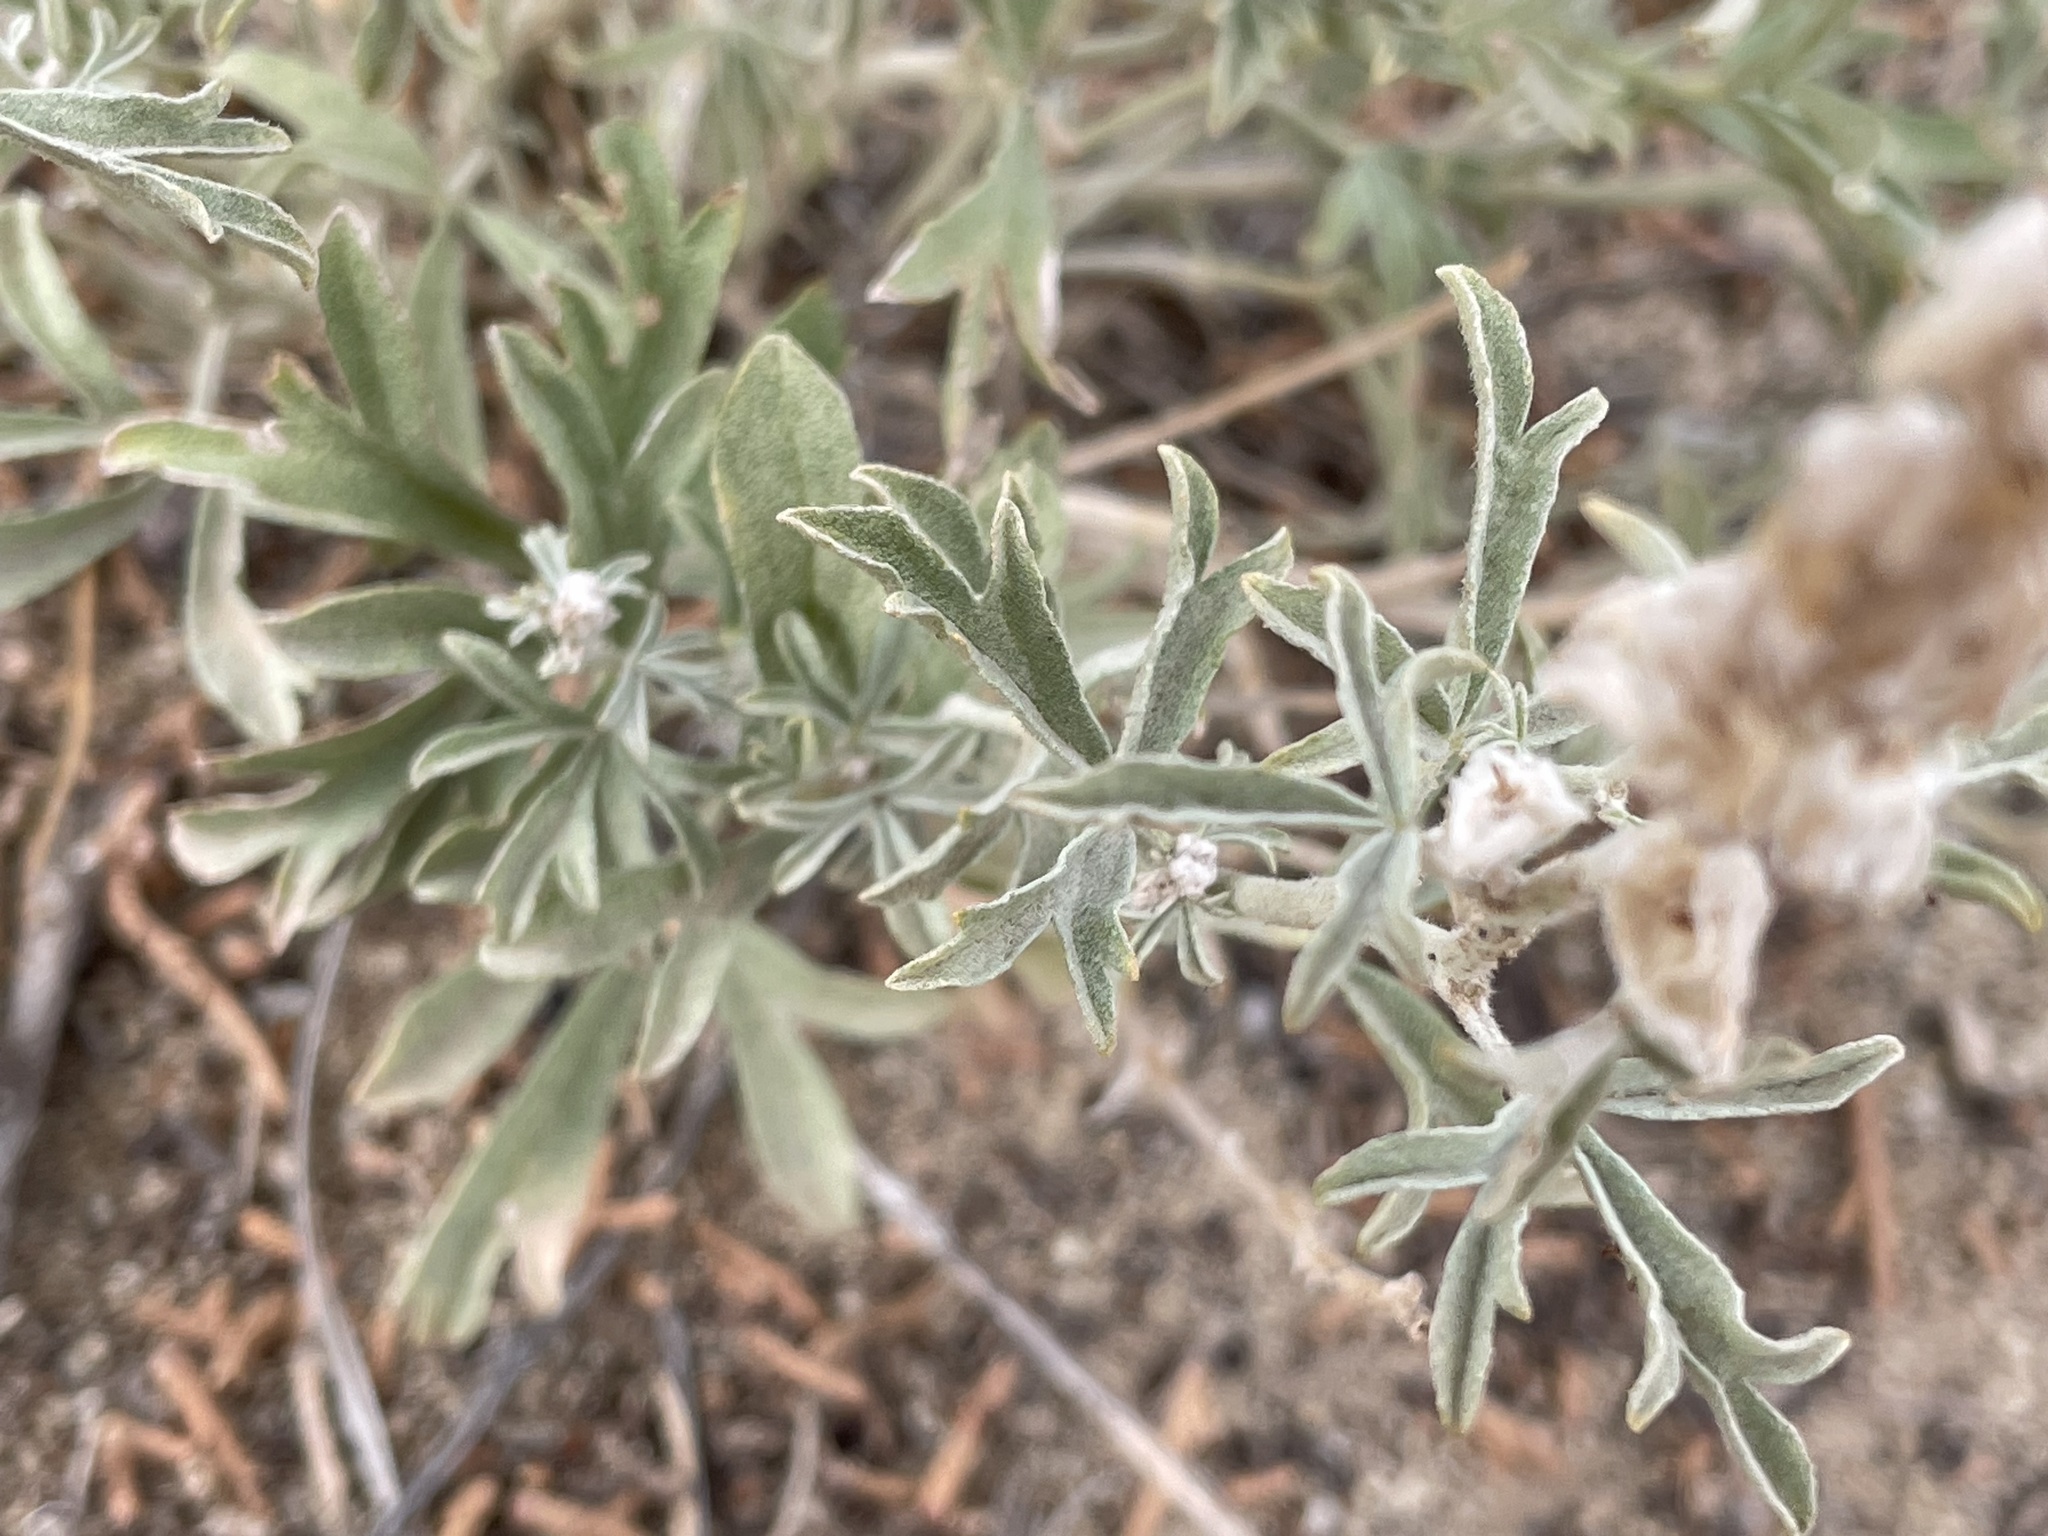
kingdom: Plantae
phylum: Tracheophyta
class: Magnoliopsida
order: Malvales
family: Malvaceae
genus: Sphaeralcea
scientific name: Sphaeralcea coccinea
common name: Moss-rose
